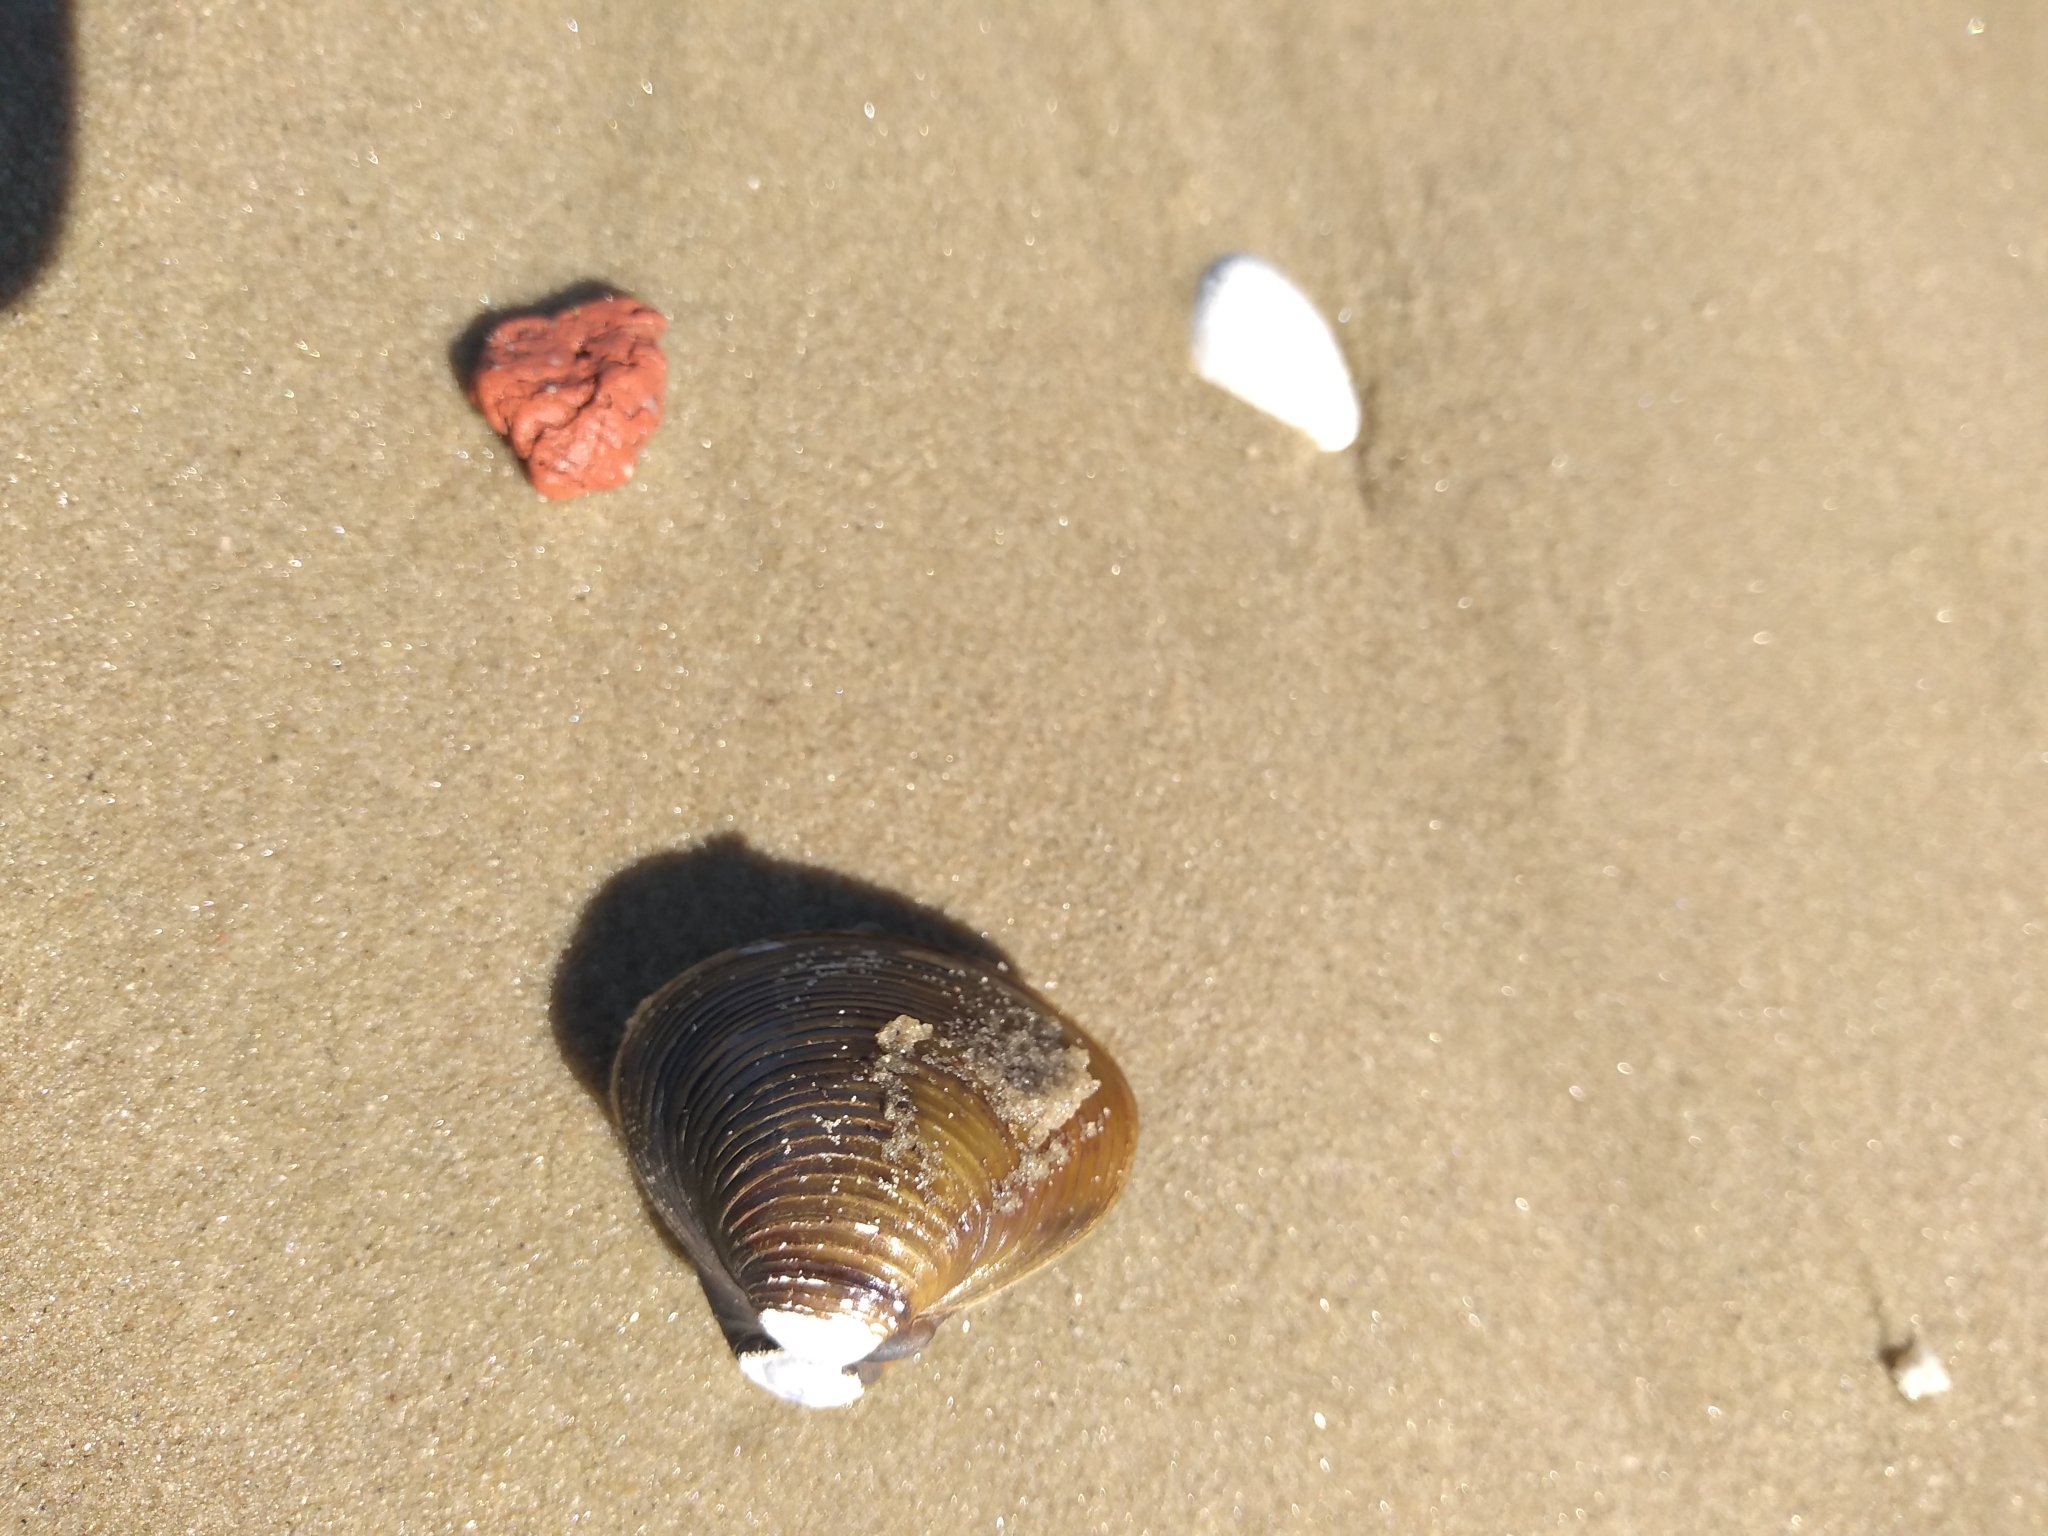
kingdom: Animalia
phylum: Mollusca
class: Bivalvia
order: Venerida
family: Cyrenidae
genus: Corbicula
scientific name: Corbicula fluminea
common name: Asian clam
